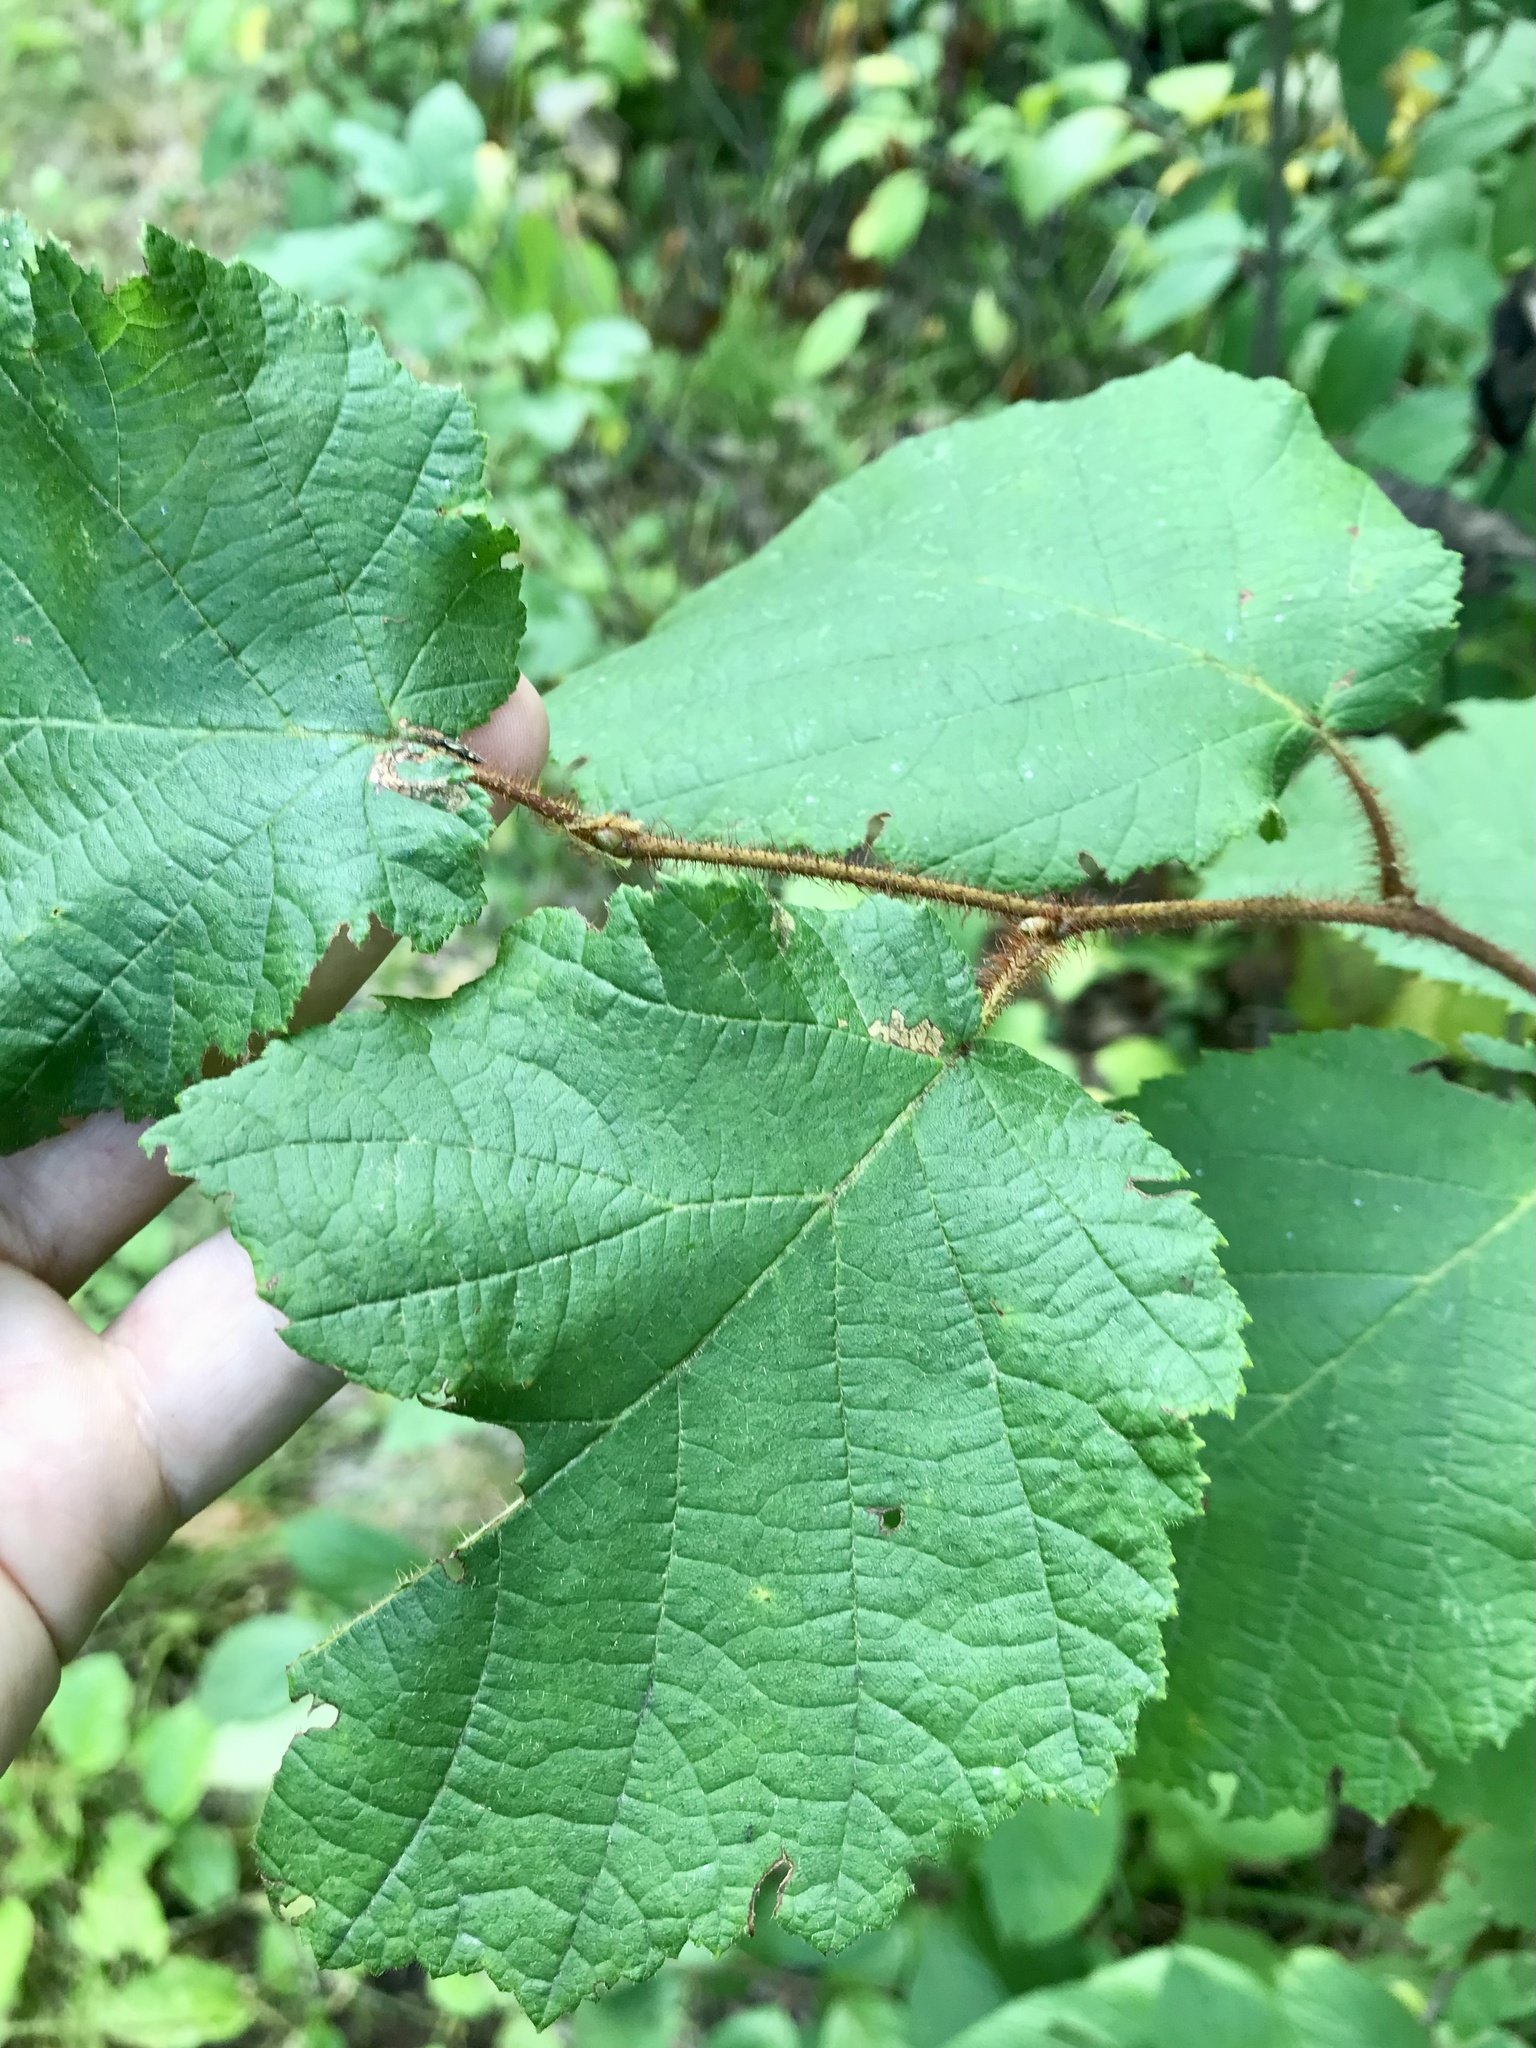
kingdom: Plantae
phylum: Tracheophyta
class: Magnoliopsida
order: Fagales
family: Betulaceae
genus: Corylus
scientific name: Corylus americana
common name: American hazel
